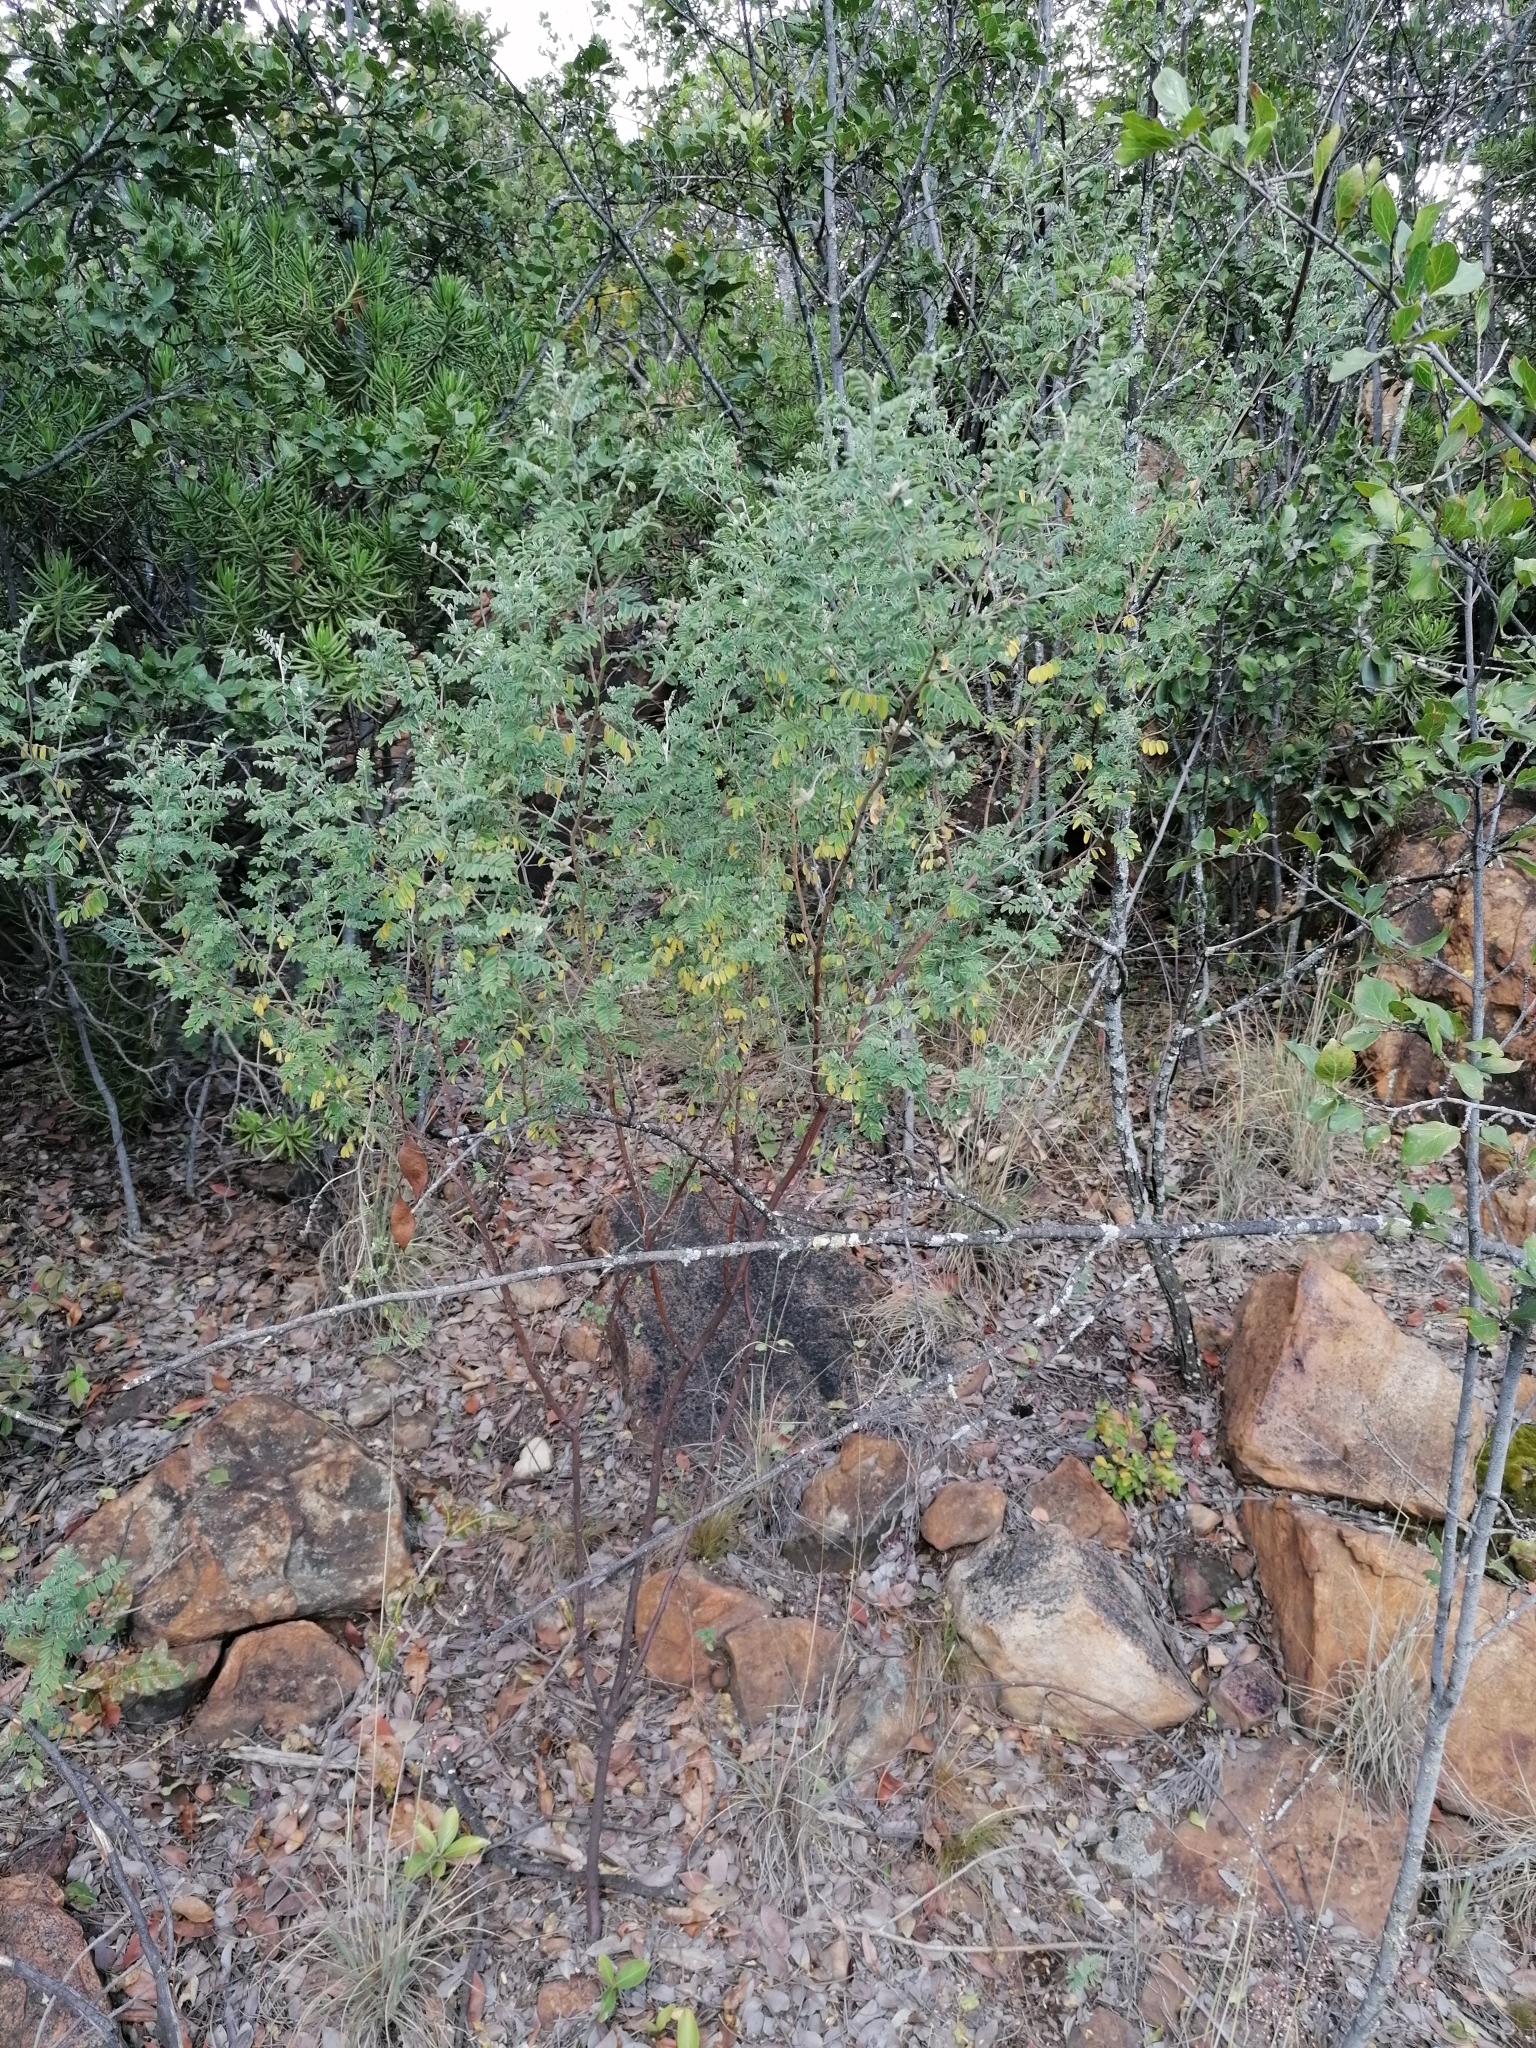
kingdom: Plantae
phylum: Tracheophyta
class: Magnoliopsida
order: Fabales
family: Fabaceae
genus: Indigofera
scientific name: Indigofera melanadenia
